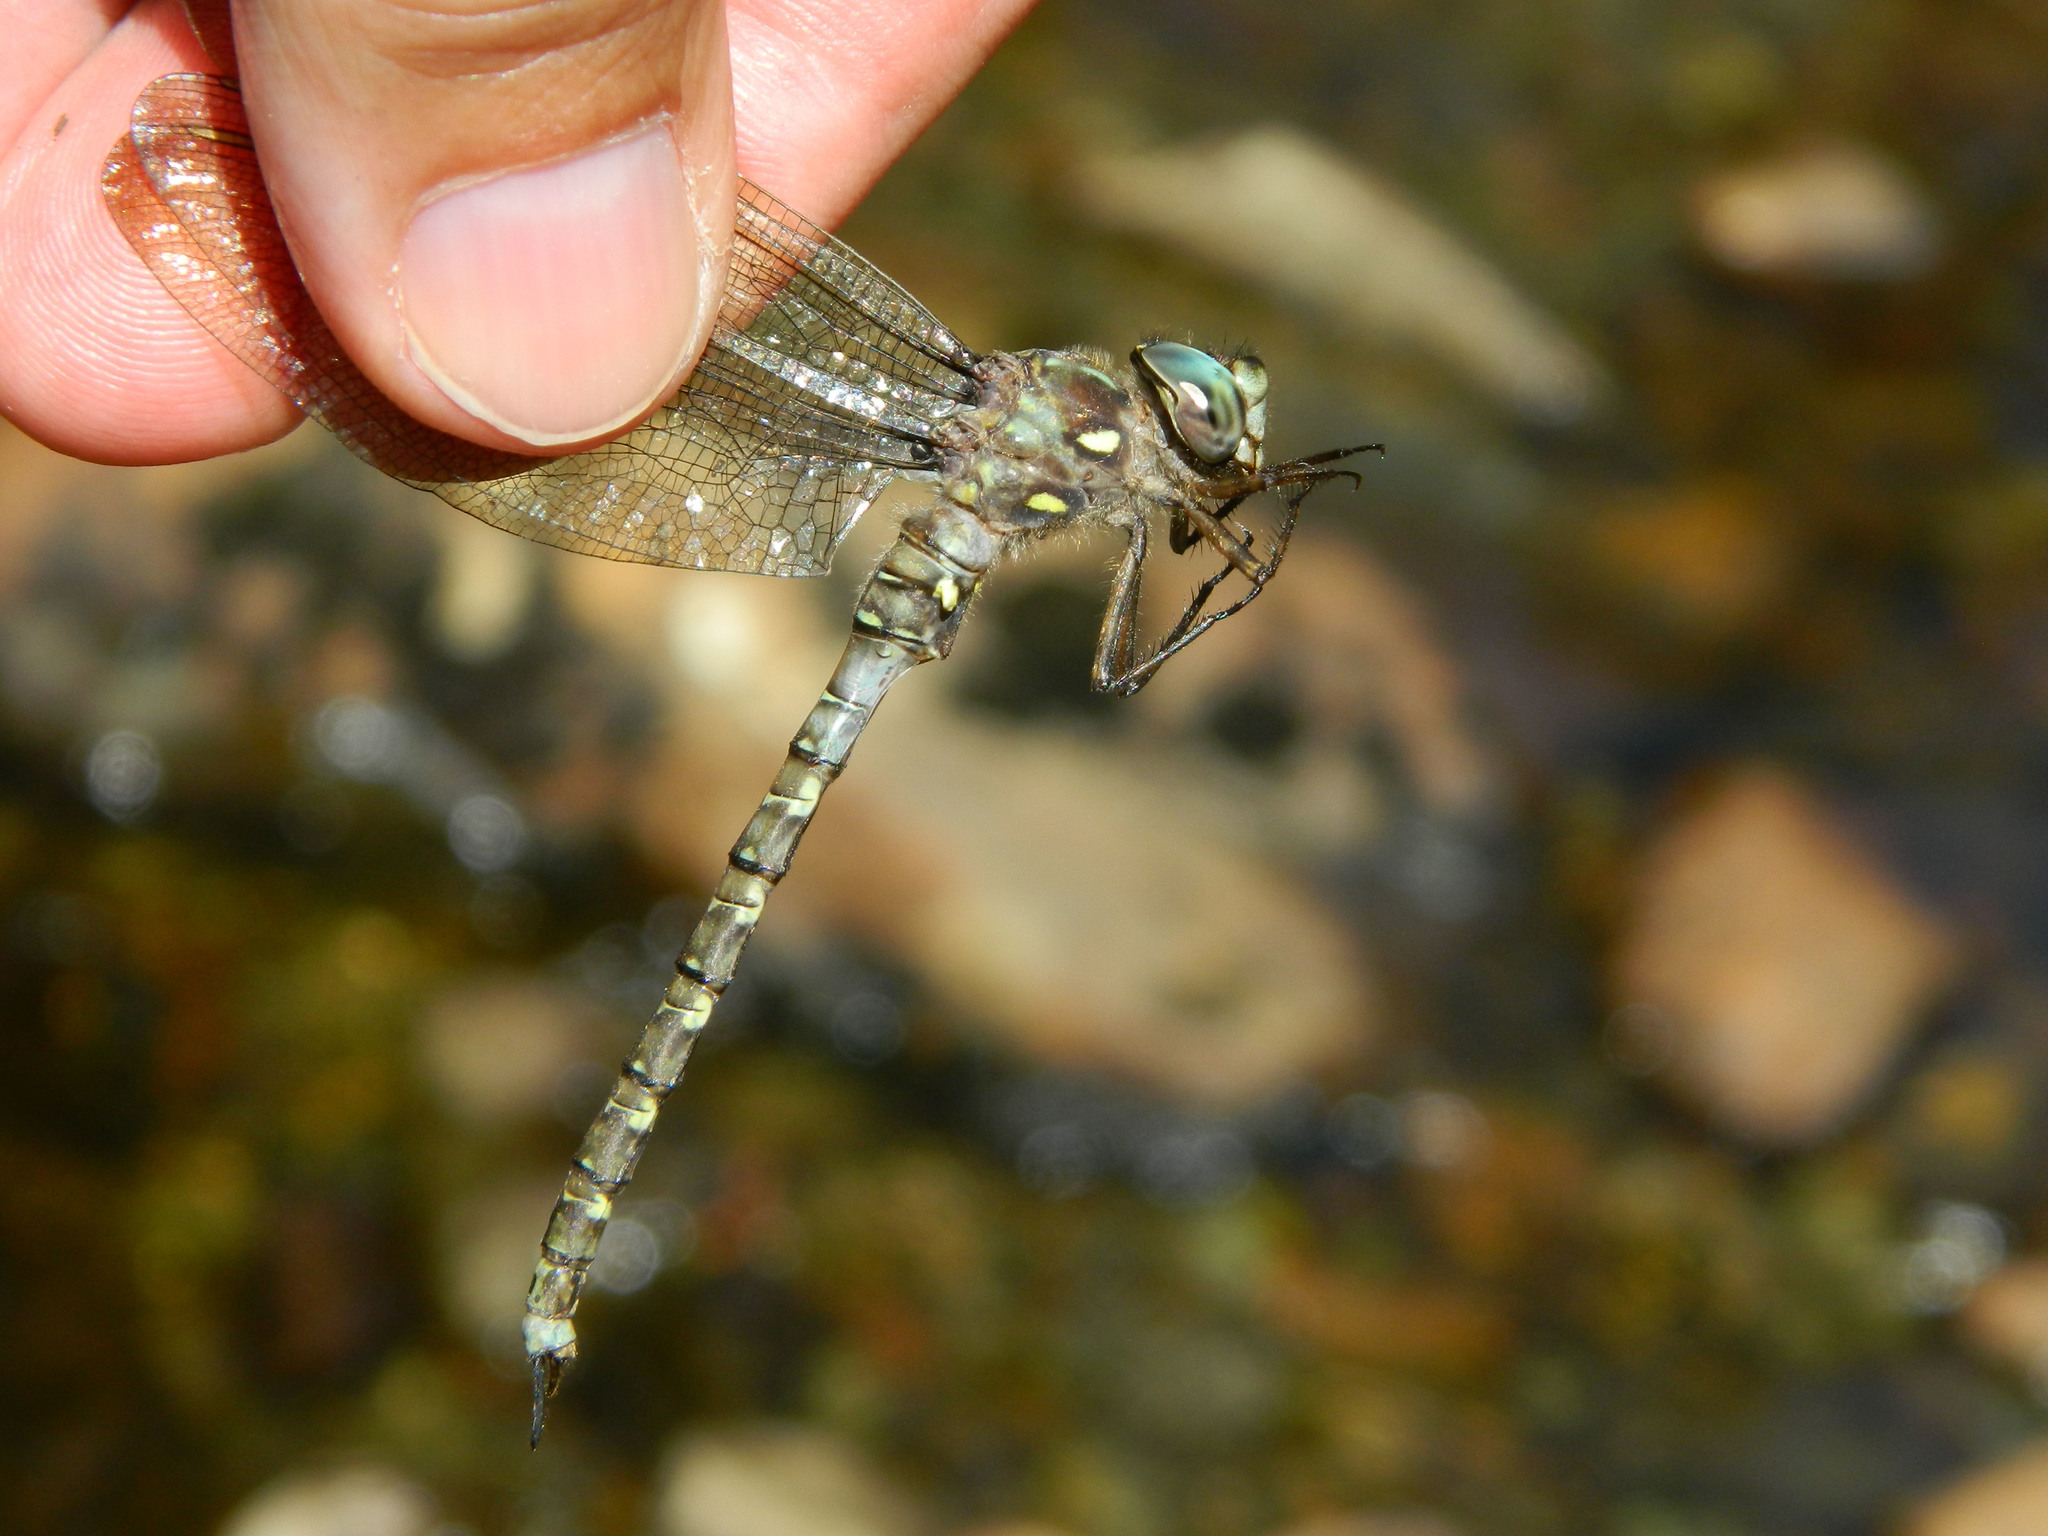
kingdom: Animalia
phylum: Arthropoda
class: Insecta
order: Odonata
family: Aeshnidae
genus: Boyeria
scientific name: Boyeria grafiana
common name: Ocellated darner
